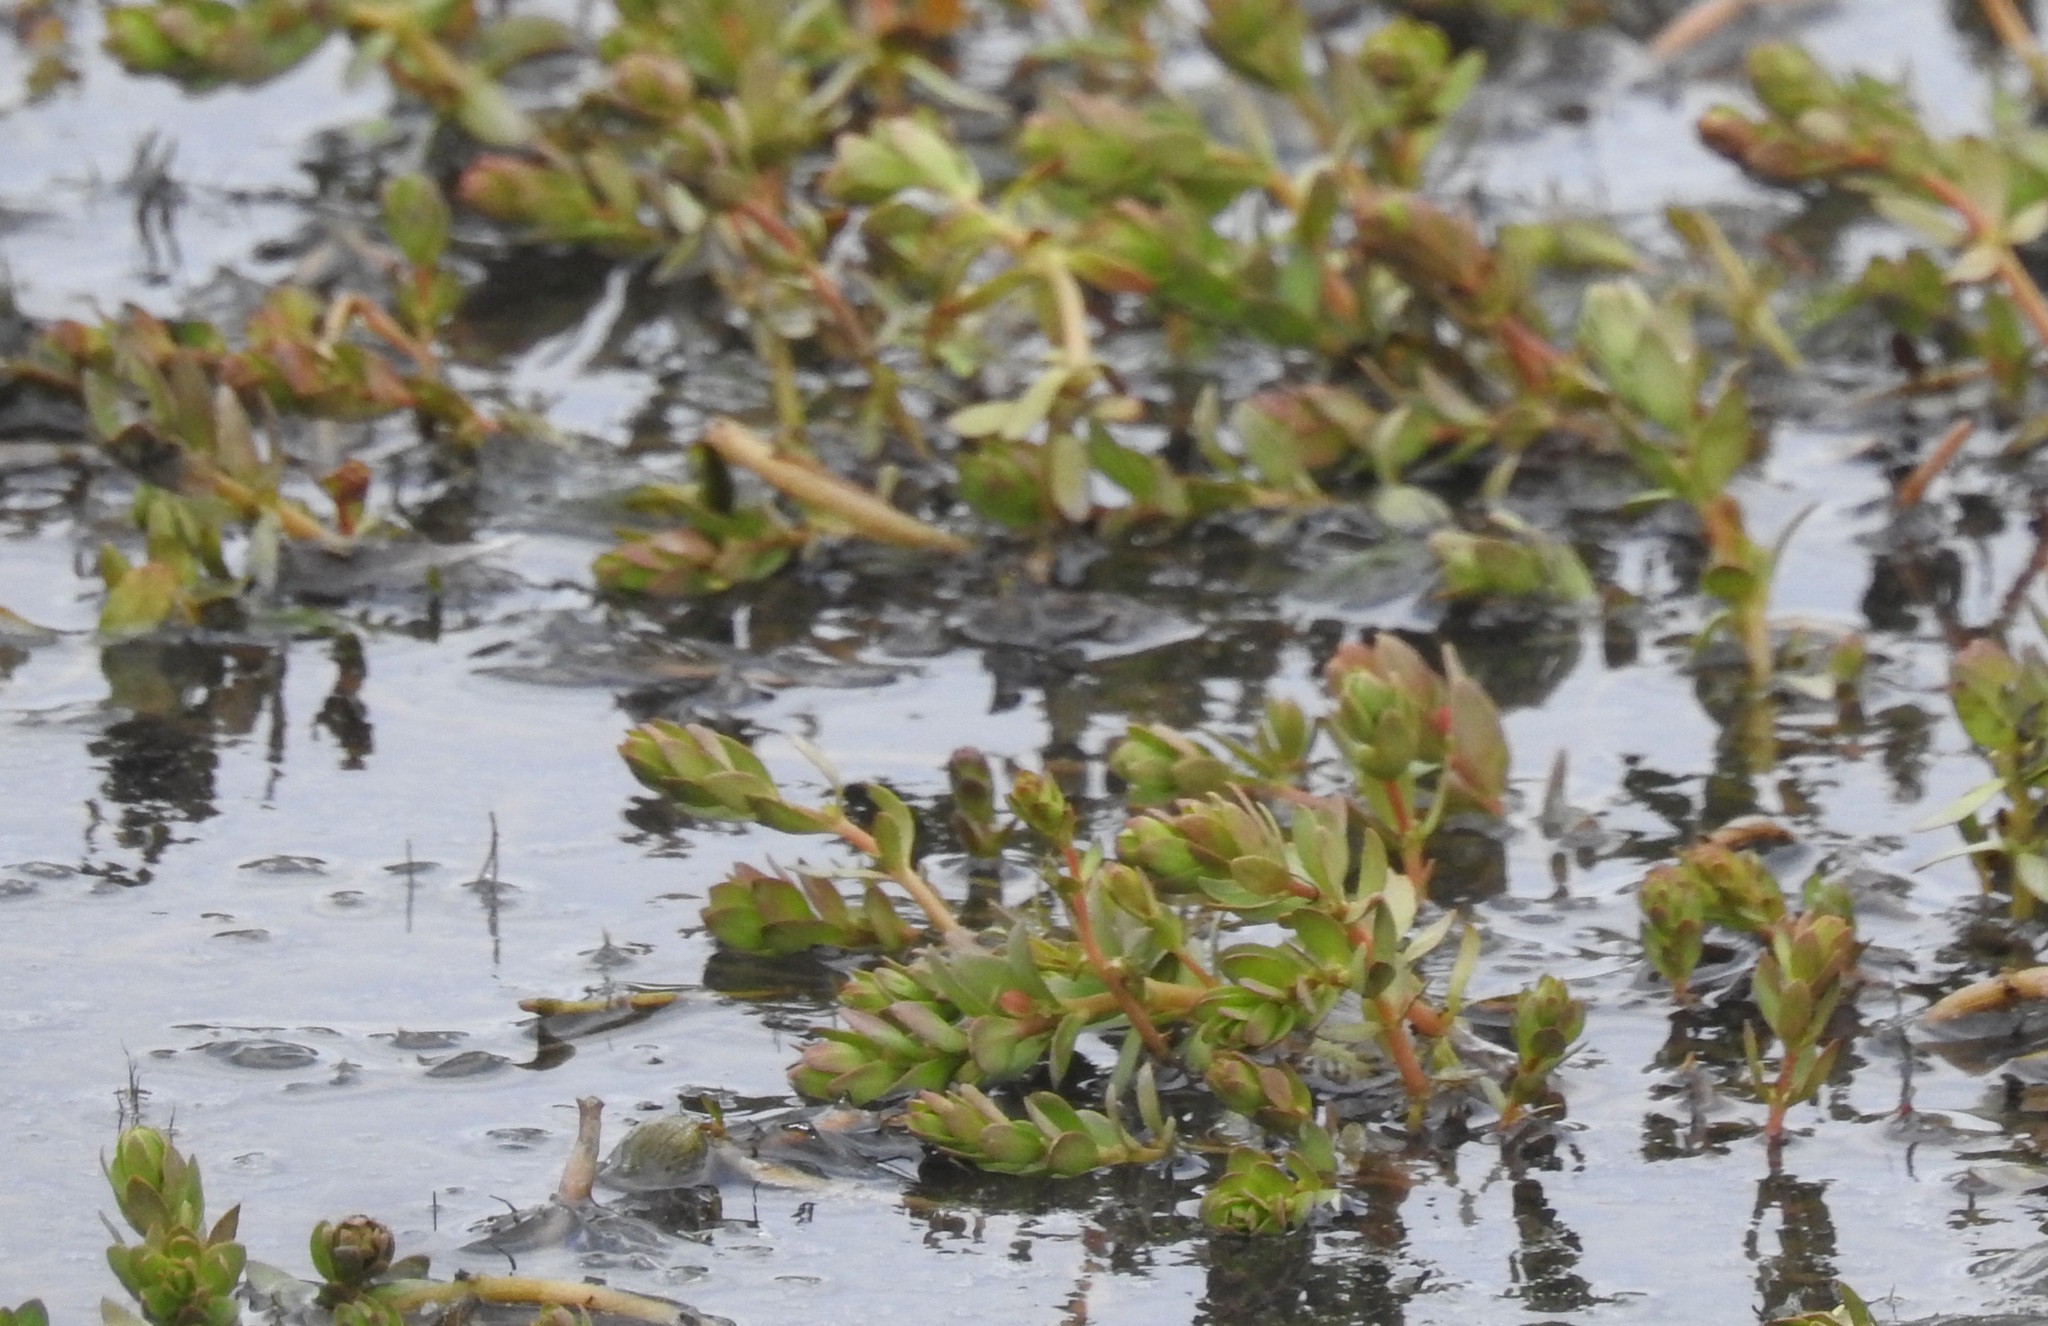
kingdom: Plantae
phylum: Tracheophyta
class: Magnoliopsida
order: Saxifragales
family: Haloragaceae
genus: Myriophyllum
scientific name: Myriophyllum quitense
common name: Andean water milfoil
